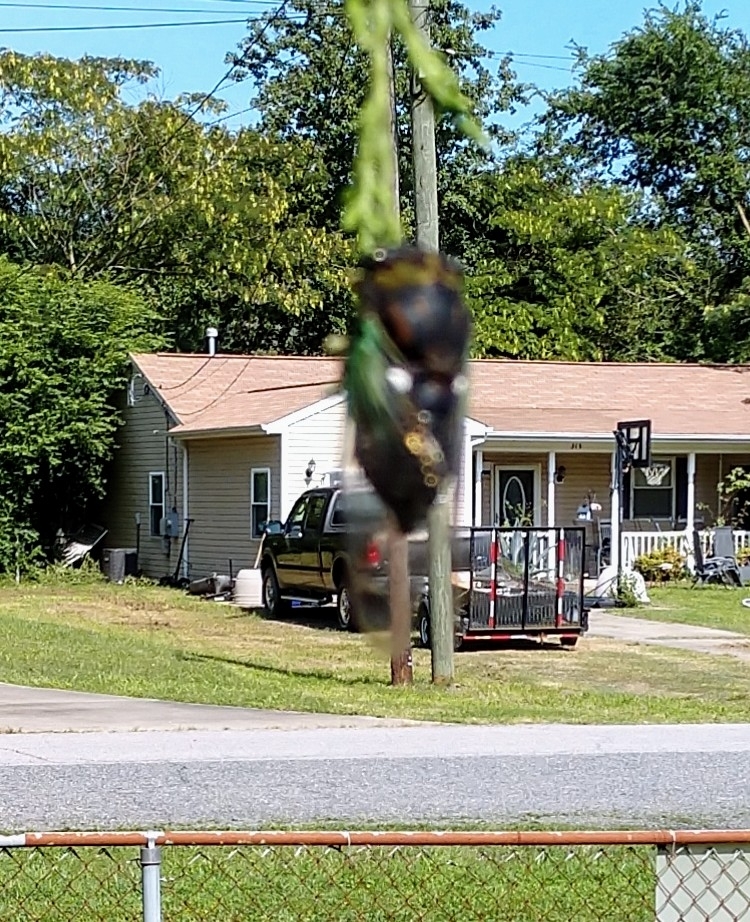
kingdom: Animalia
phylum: Arthropoda
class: Insecta
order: Hemiptera
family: Cicadidae
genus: Neotibicen
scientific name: Neotibicen tibicen
